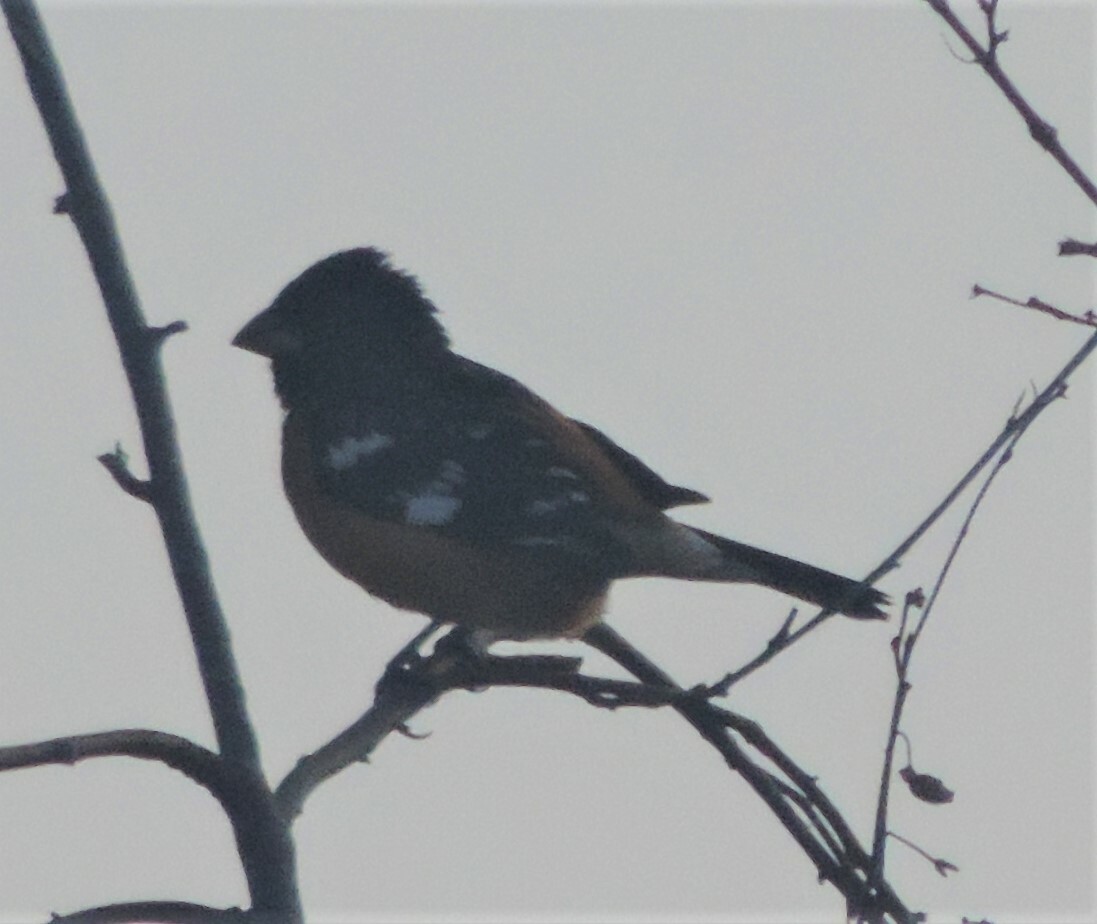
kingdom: Animalia
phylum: Chordata
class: Aves
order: Passeriformes
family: Cardinalidae
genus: Pheucticus
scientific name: Pheucticus melanocephalus
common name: Black-headed grosbeak
